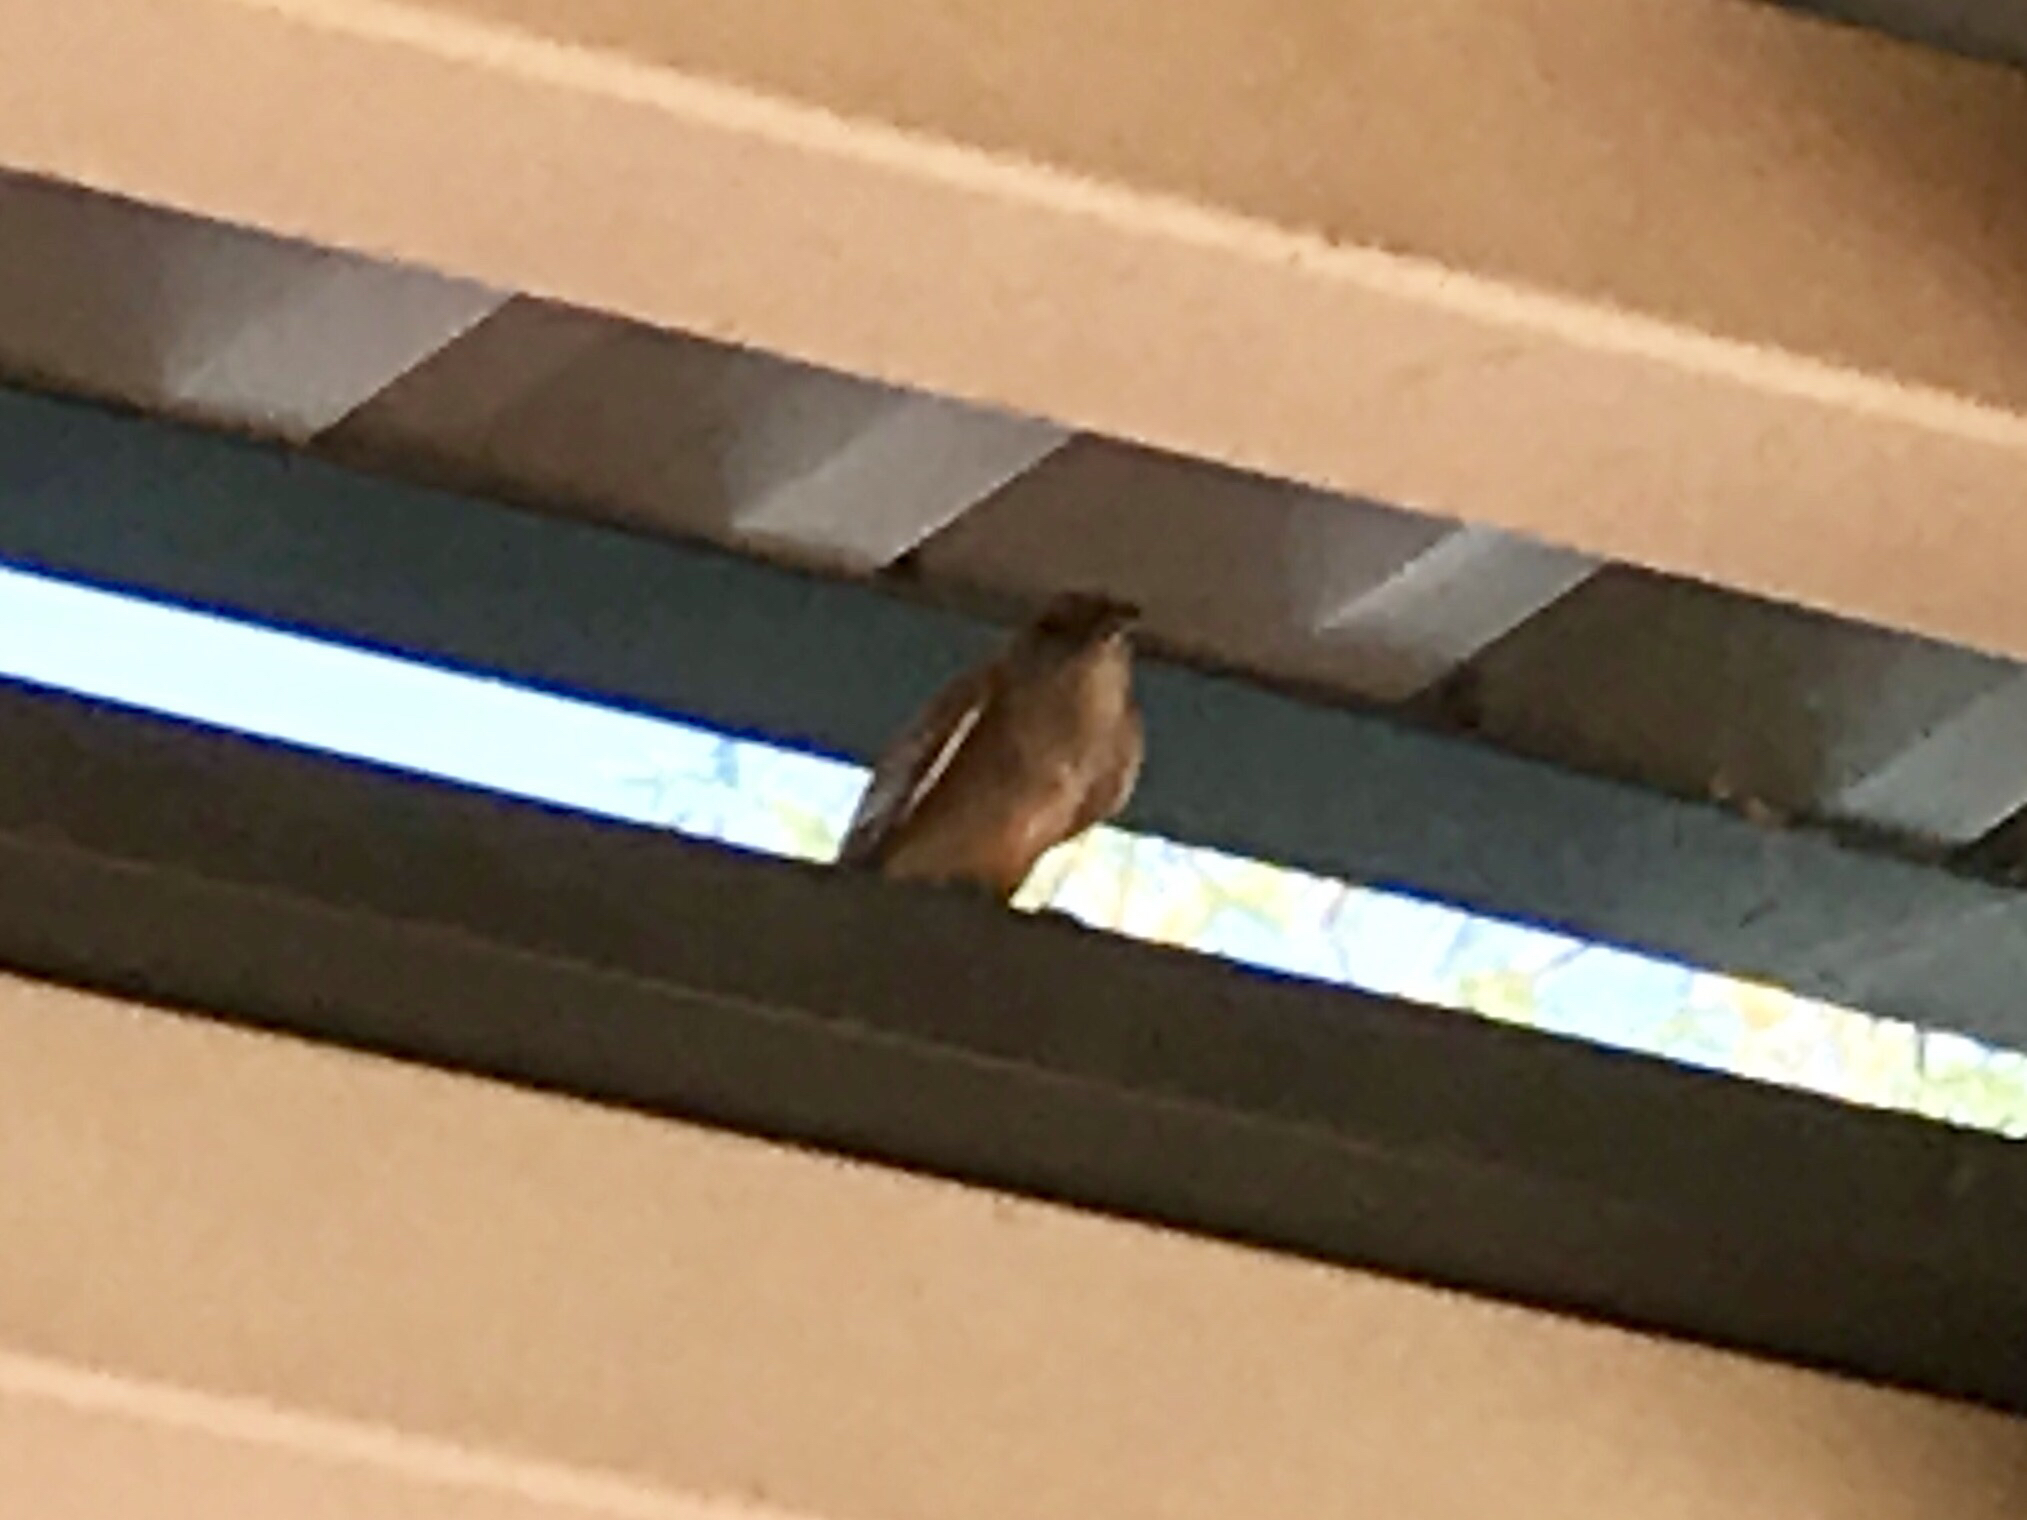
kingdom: Animalia
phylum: Chordata
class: Aves
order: Passeriformes
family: Tyrannidae
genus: Sayornis
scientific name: Sayornis saya
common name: Say's phoebe
